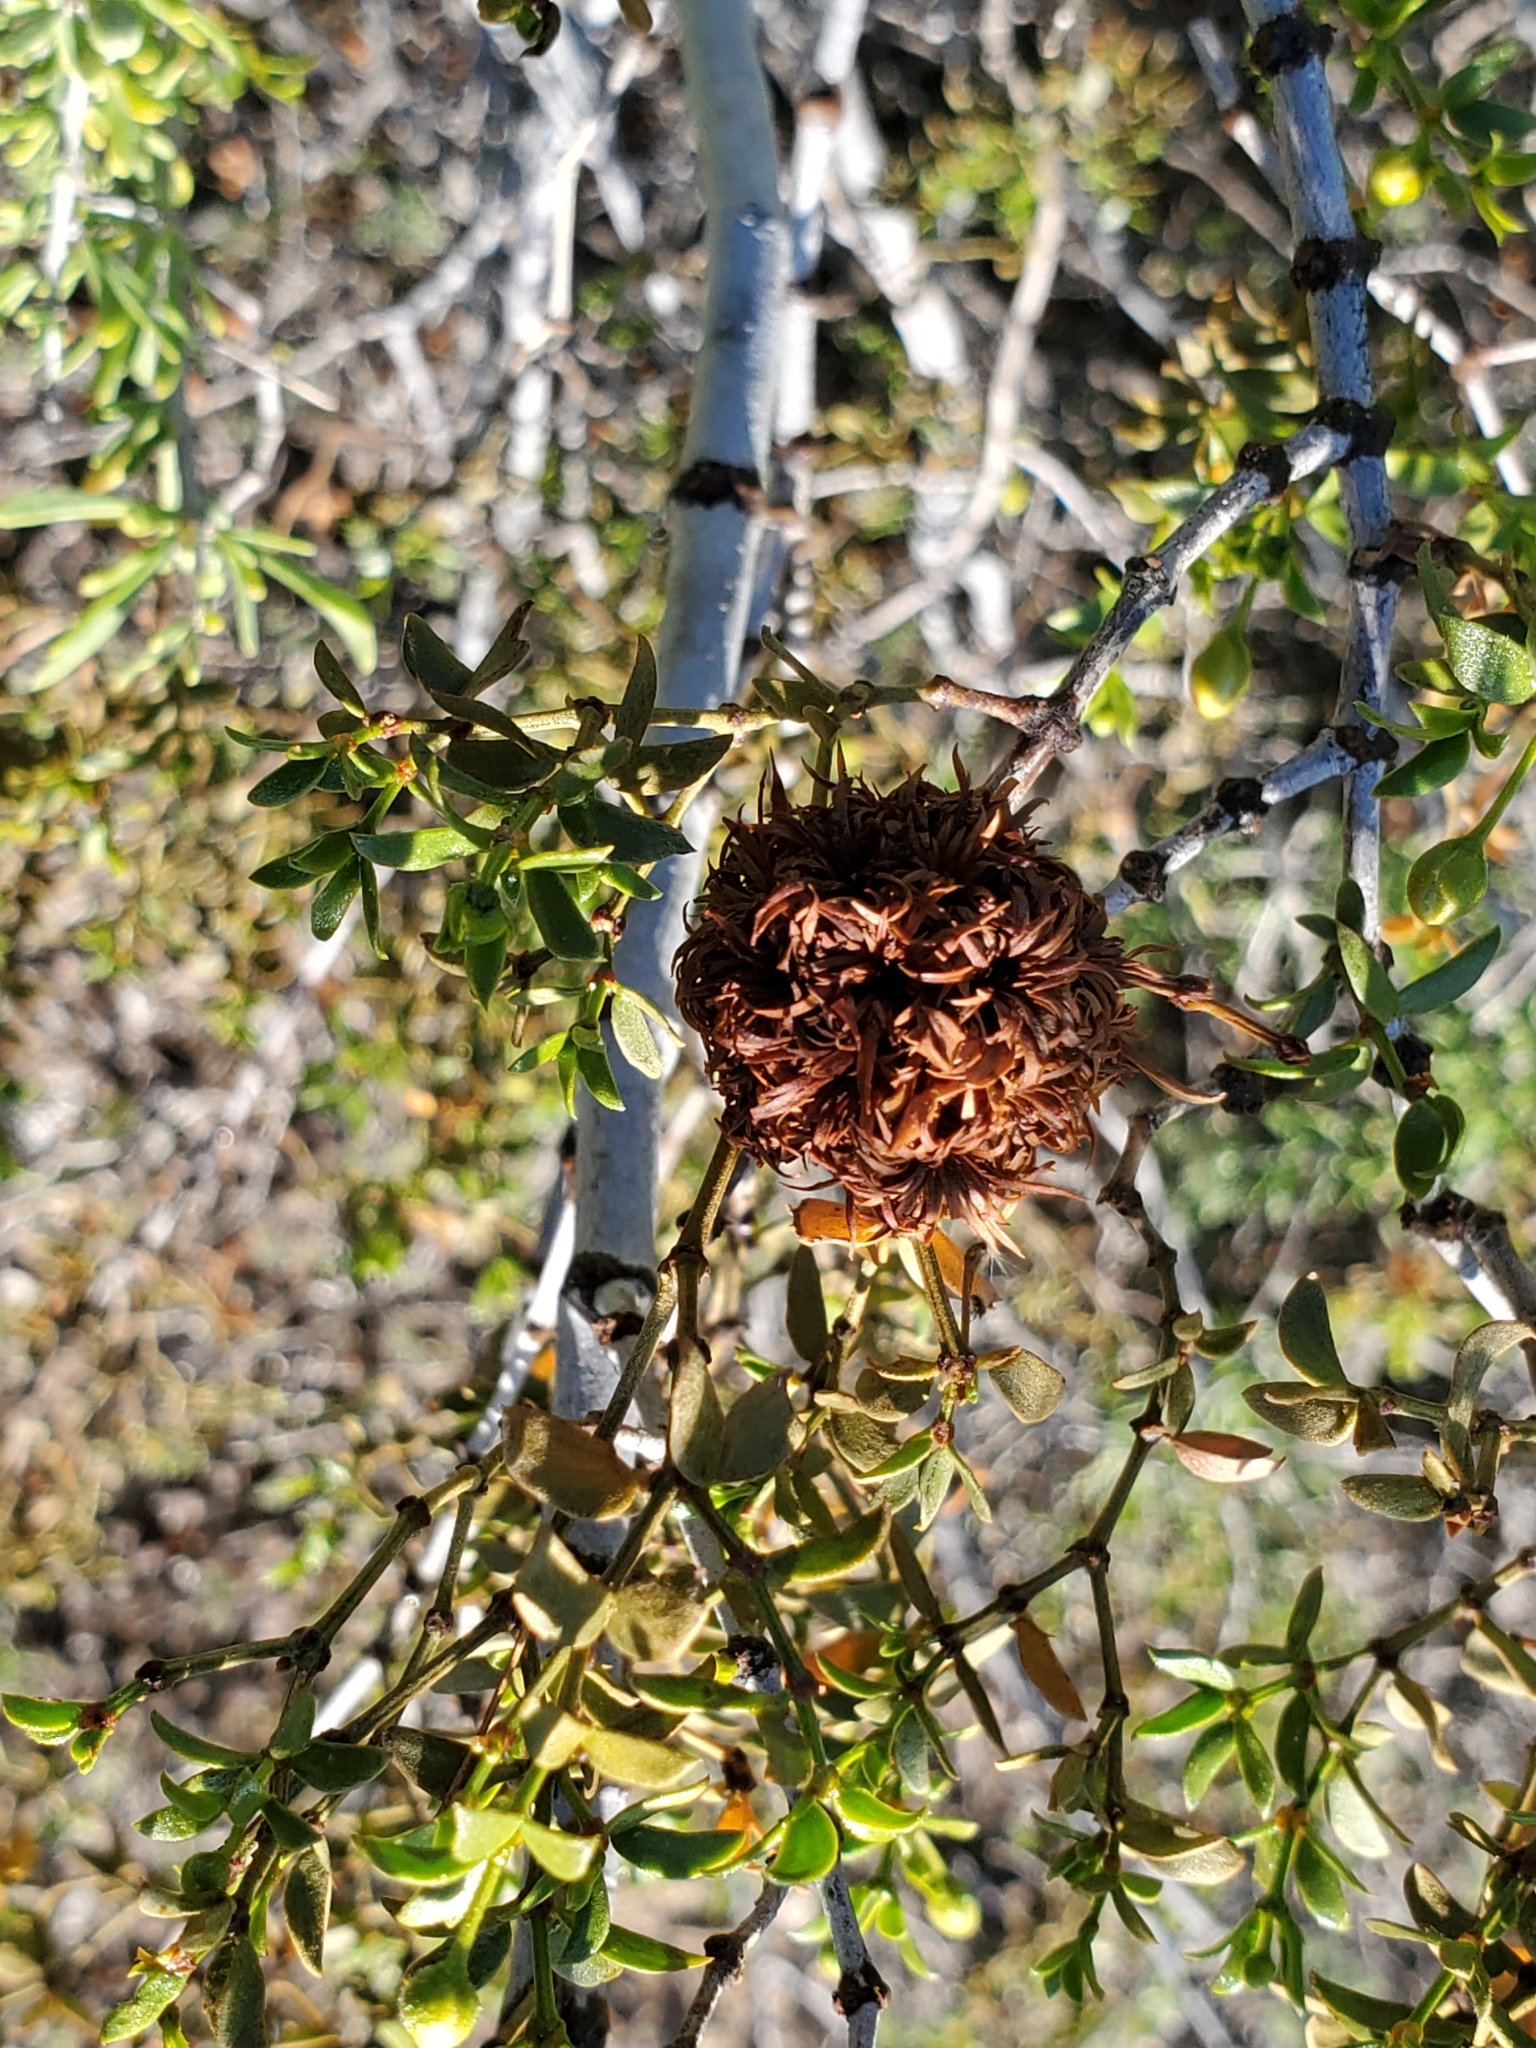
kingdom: Animalia
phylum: Arthropoda
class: Insecta
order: Diptera
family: Cecidomyiidae
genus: Asphondylia
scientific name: Asphondylia auripila
